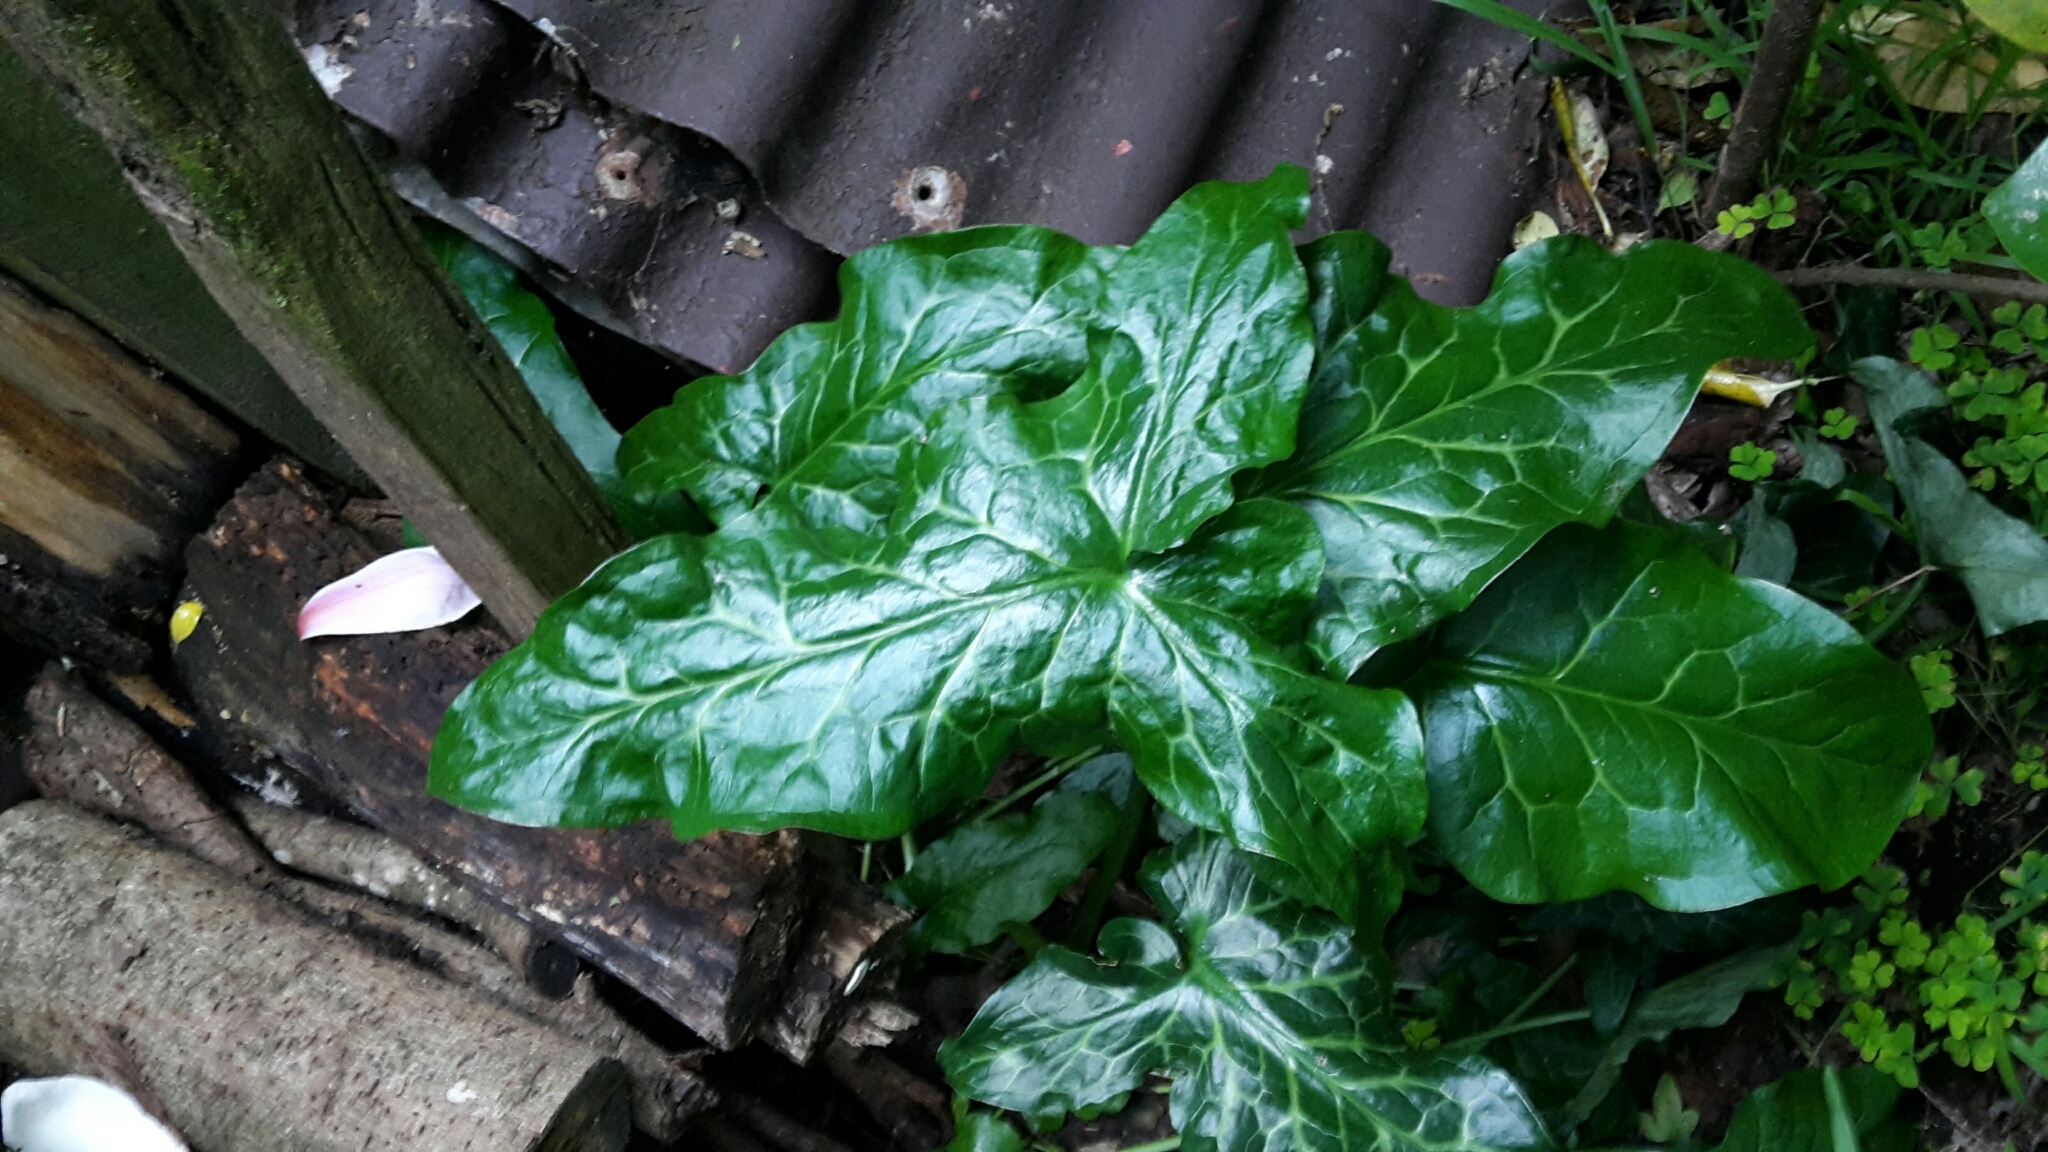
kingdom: Plantae
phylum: Tracheophyta
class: Liliopsida
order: Alismatales
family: Araceae
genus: Arum
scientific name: Arum italicum
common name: Italian lords-and-ladies
